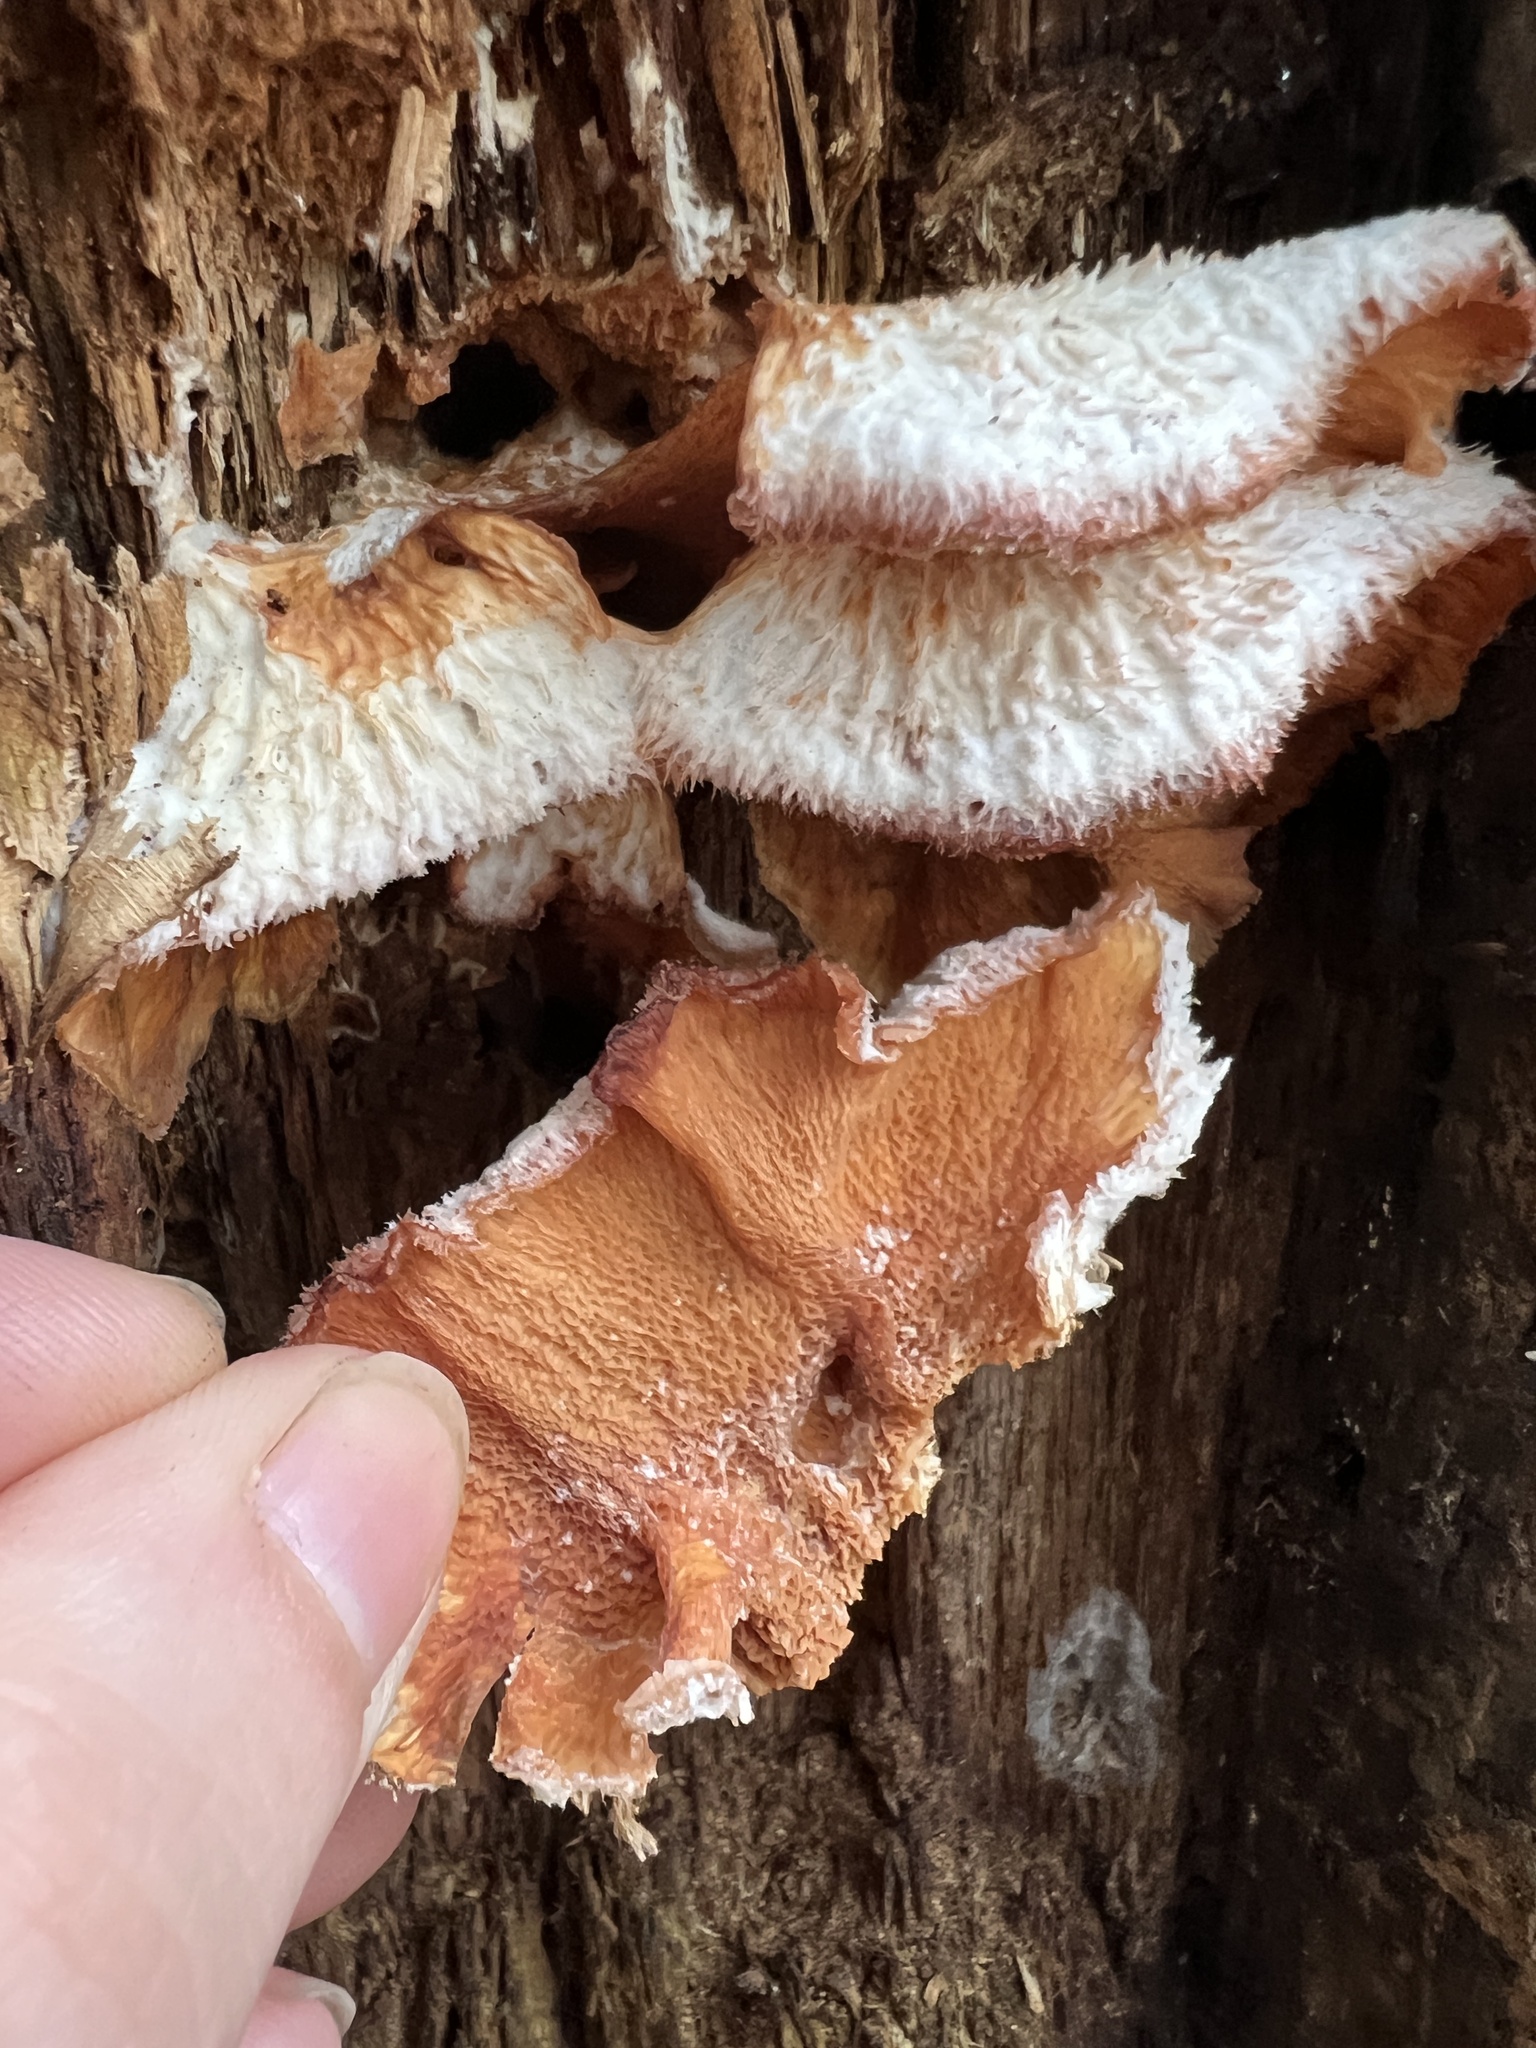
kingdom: Fungi
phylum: Basidiomycota
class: Agaricomycetes
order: Polyporales
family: Meruliaceae
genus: Phlebia
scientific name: Phlebia tremellosa
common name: Jelly rot
